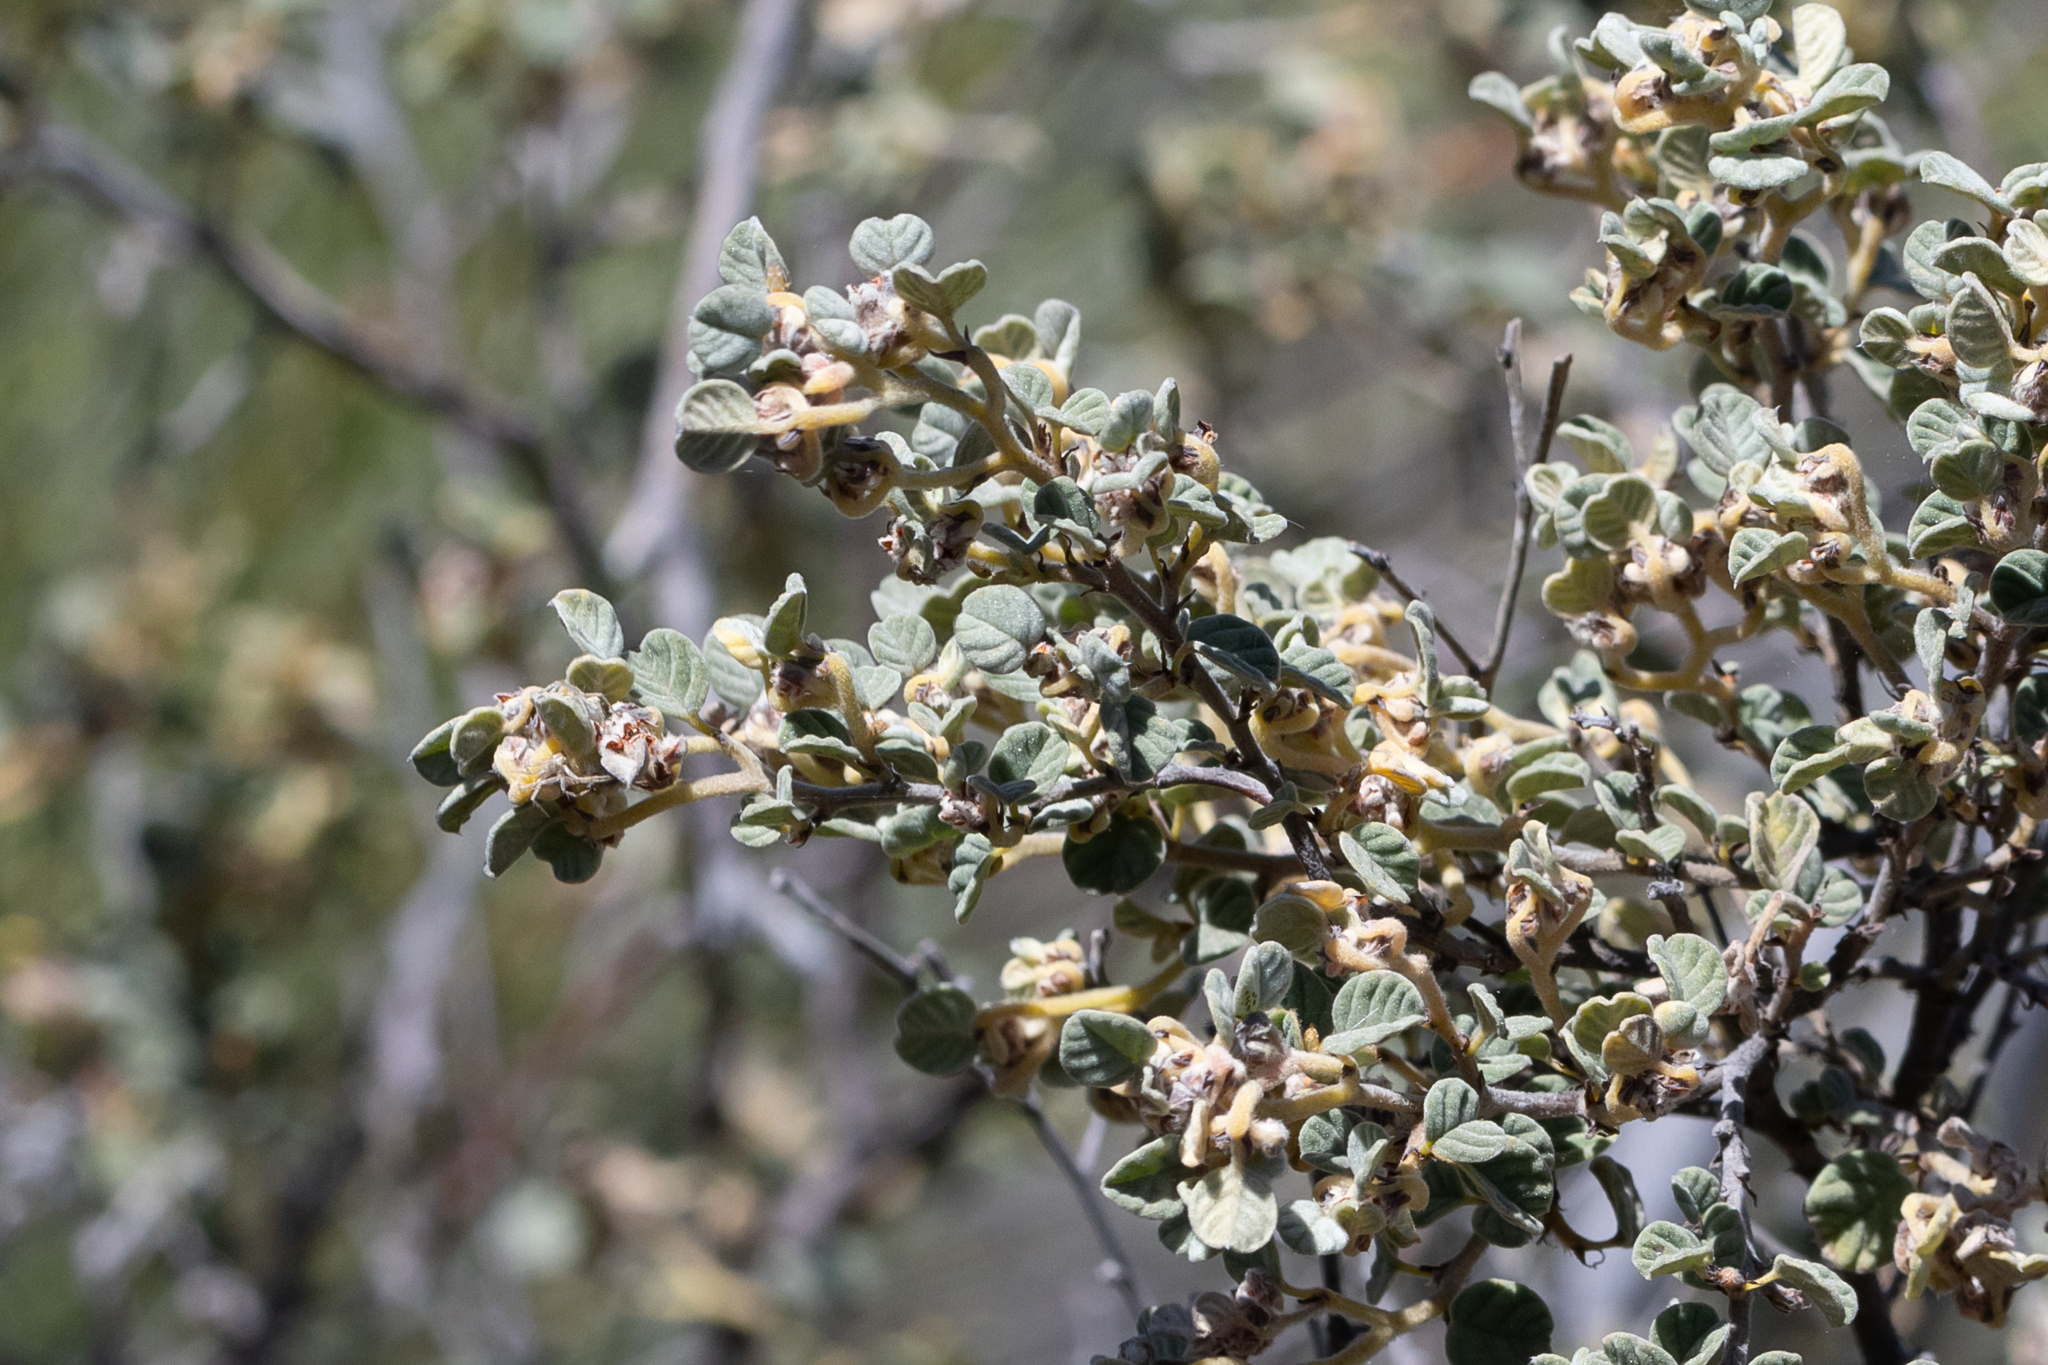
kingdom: Plantae
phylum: Tracheophyta
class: Magnoliopsida
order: Rosales
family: Rhamnaceae
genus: Spyridium
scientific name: Spyridium parvifolium
